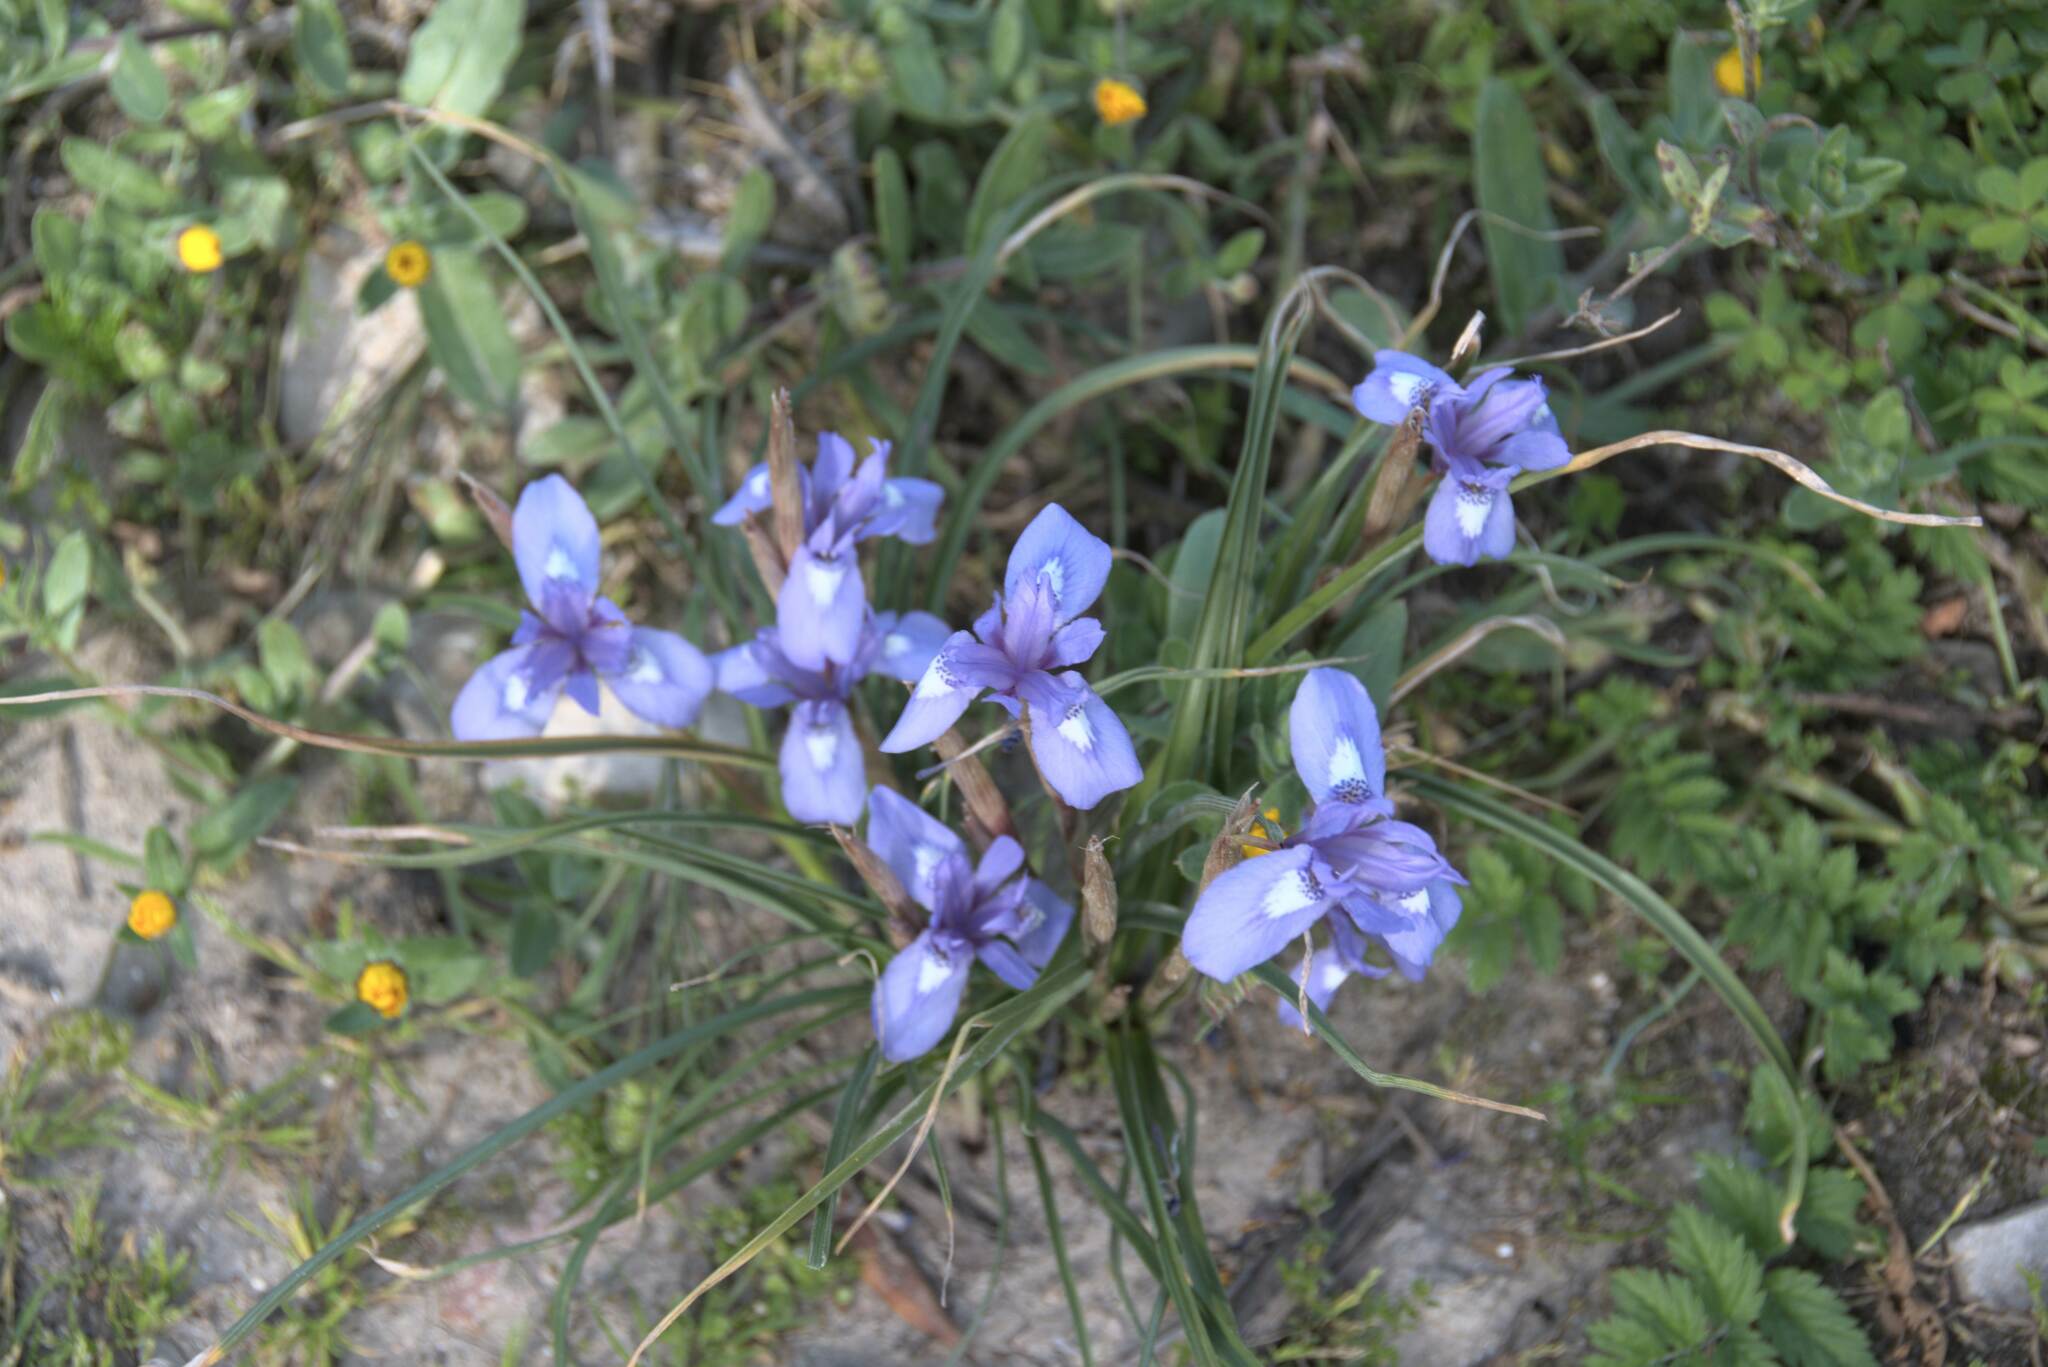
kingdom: Plantae
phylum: Tracheophyta
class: Liliopsida
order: Asparagales
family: Iridaceae
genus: Moraea
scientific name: Moraea sisyrinchium
